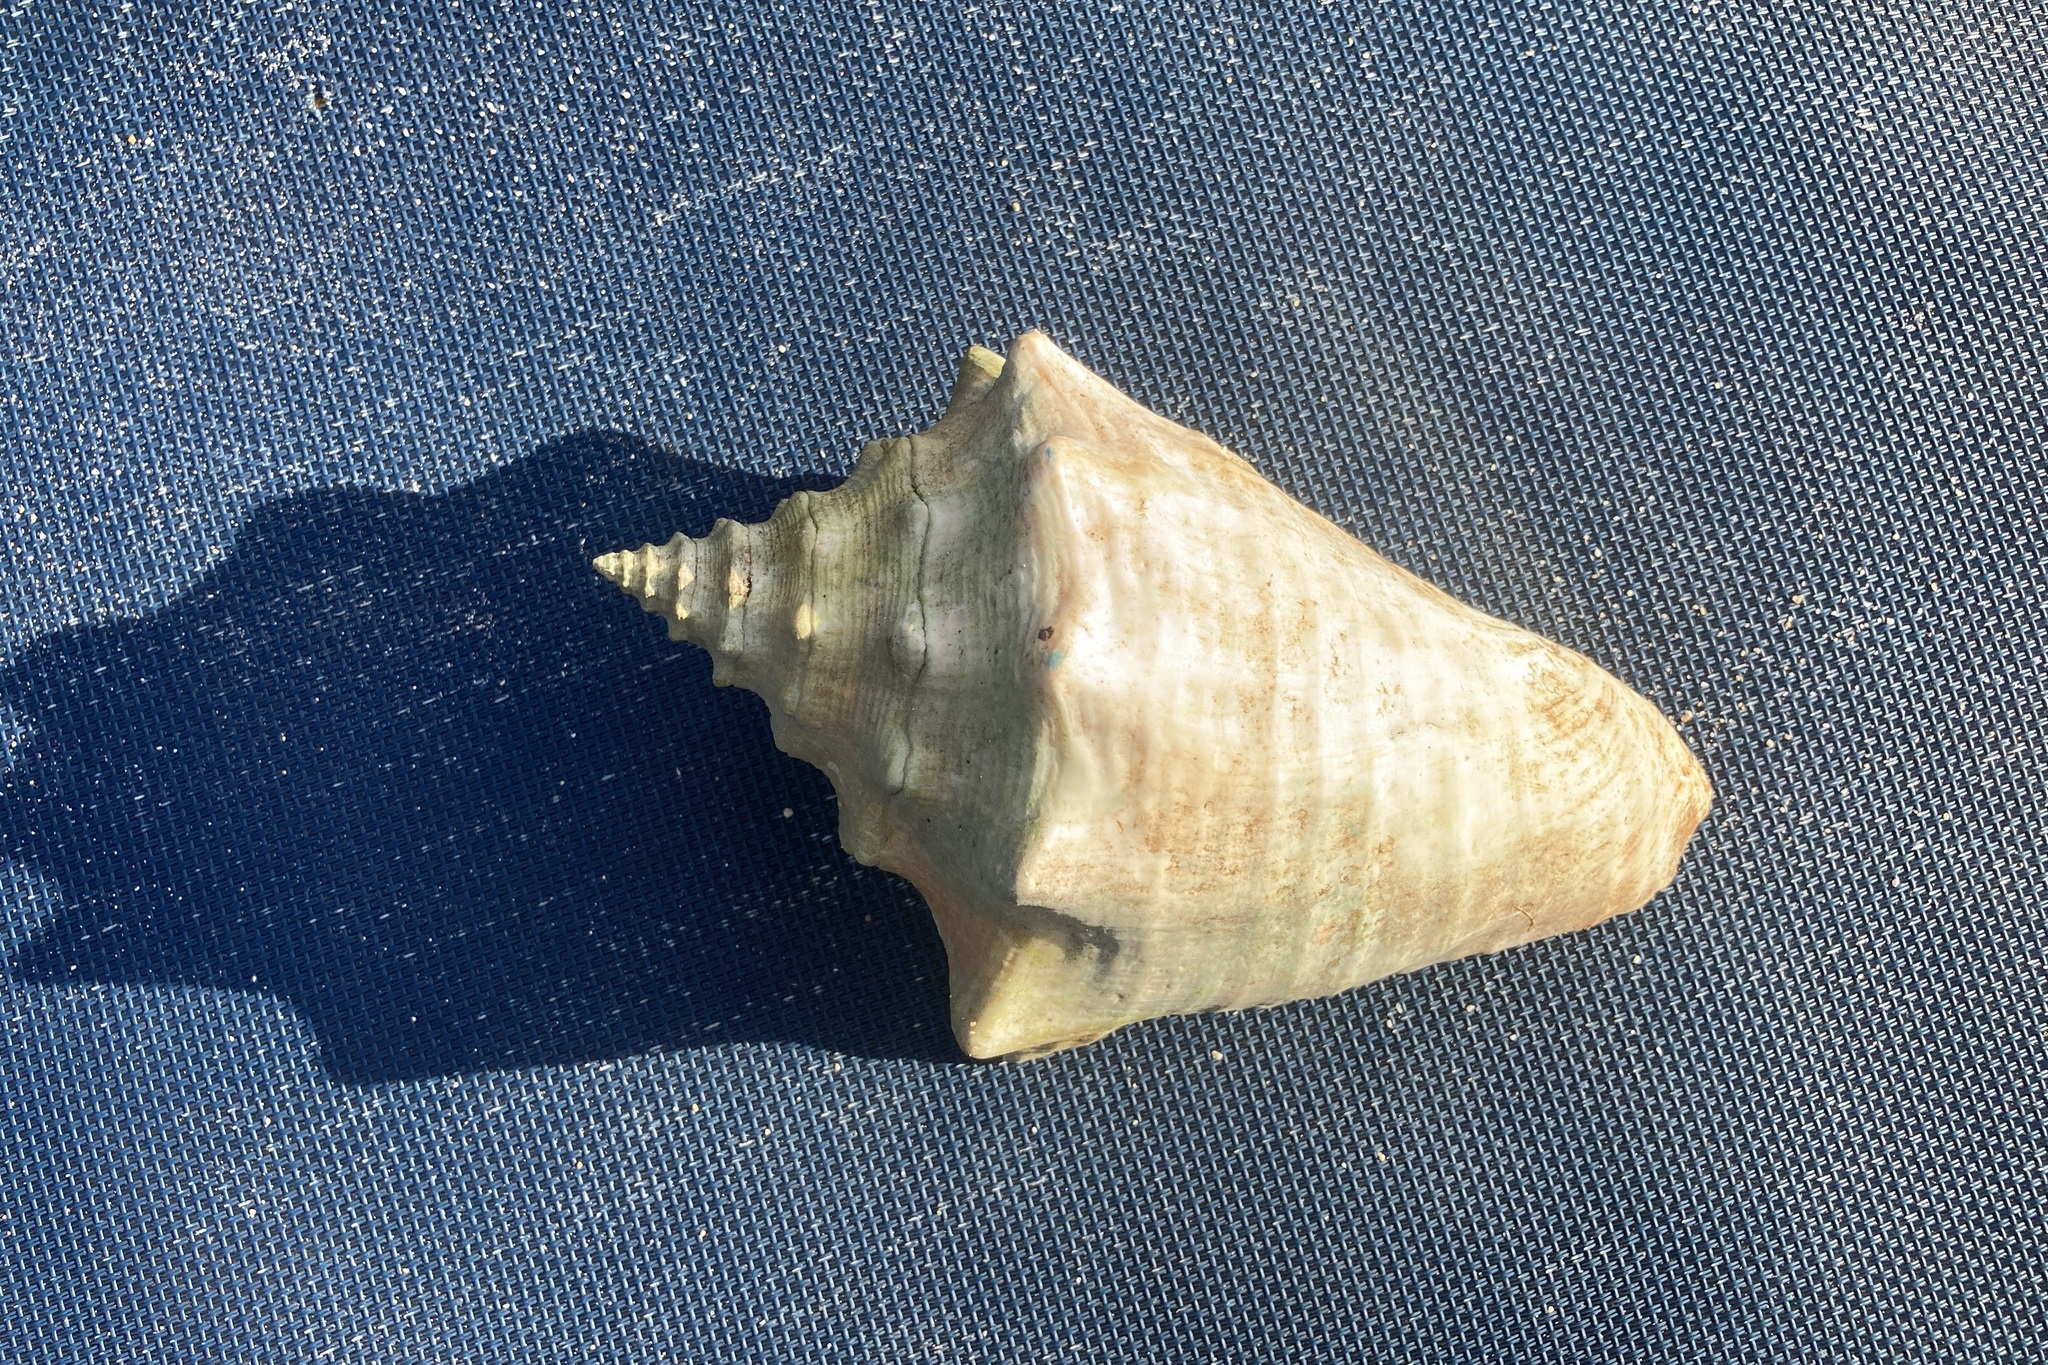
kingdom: Animalia
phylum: Mollusca
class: Gastropoda
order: Littorinimorpha
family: Strombidae
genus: Aliger
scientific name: Aliger gigas
